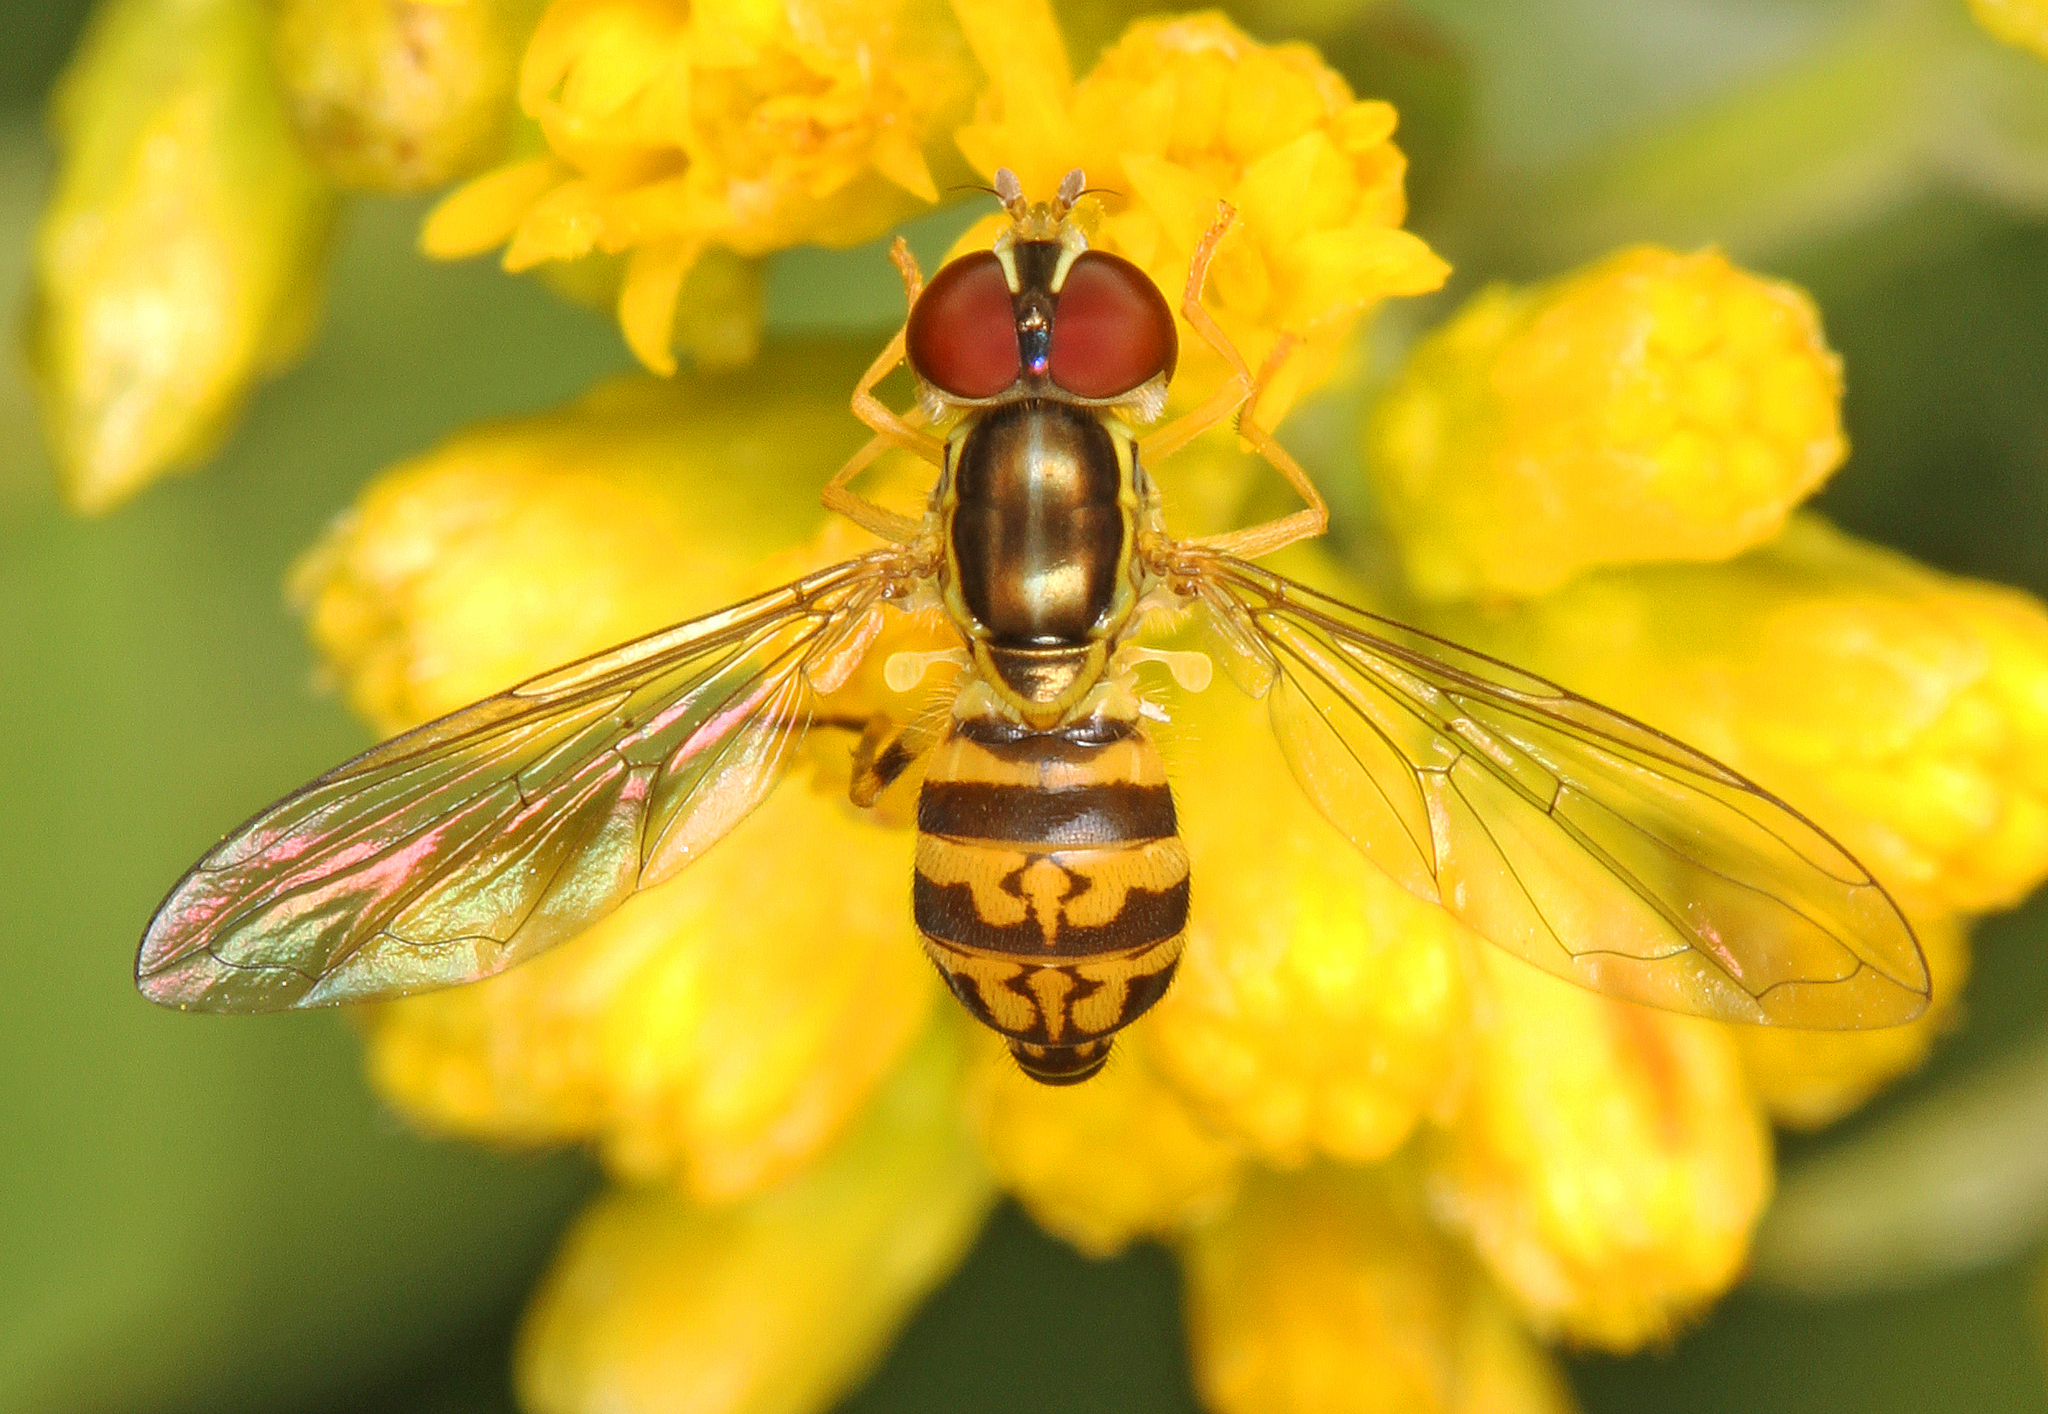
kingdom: Animalia
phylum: Arthropoda
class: Insecta
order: Diptera
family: Syrphidae
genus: Toxomerus
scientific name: Toxomerus geminatus
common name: Eastern calligrapher
